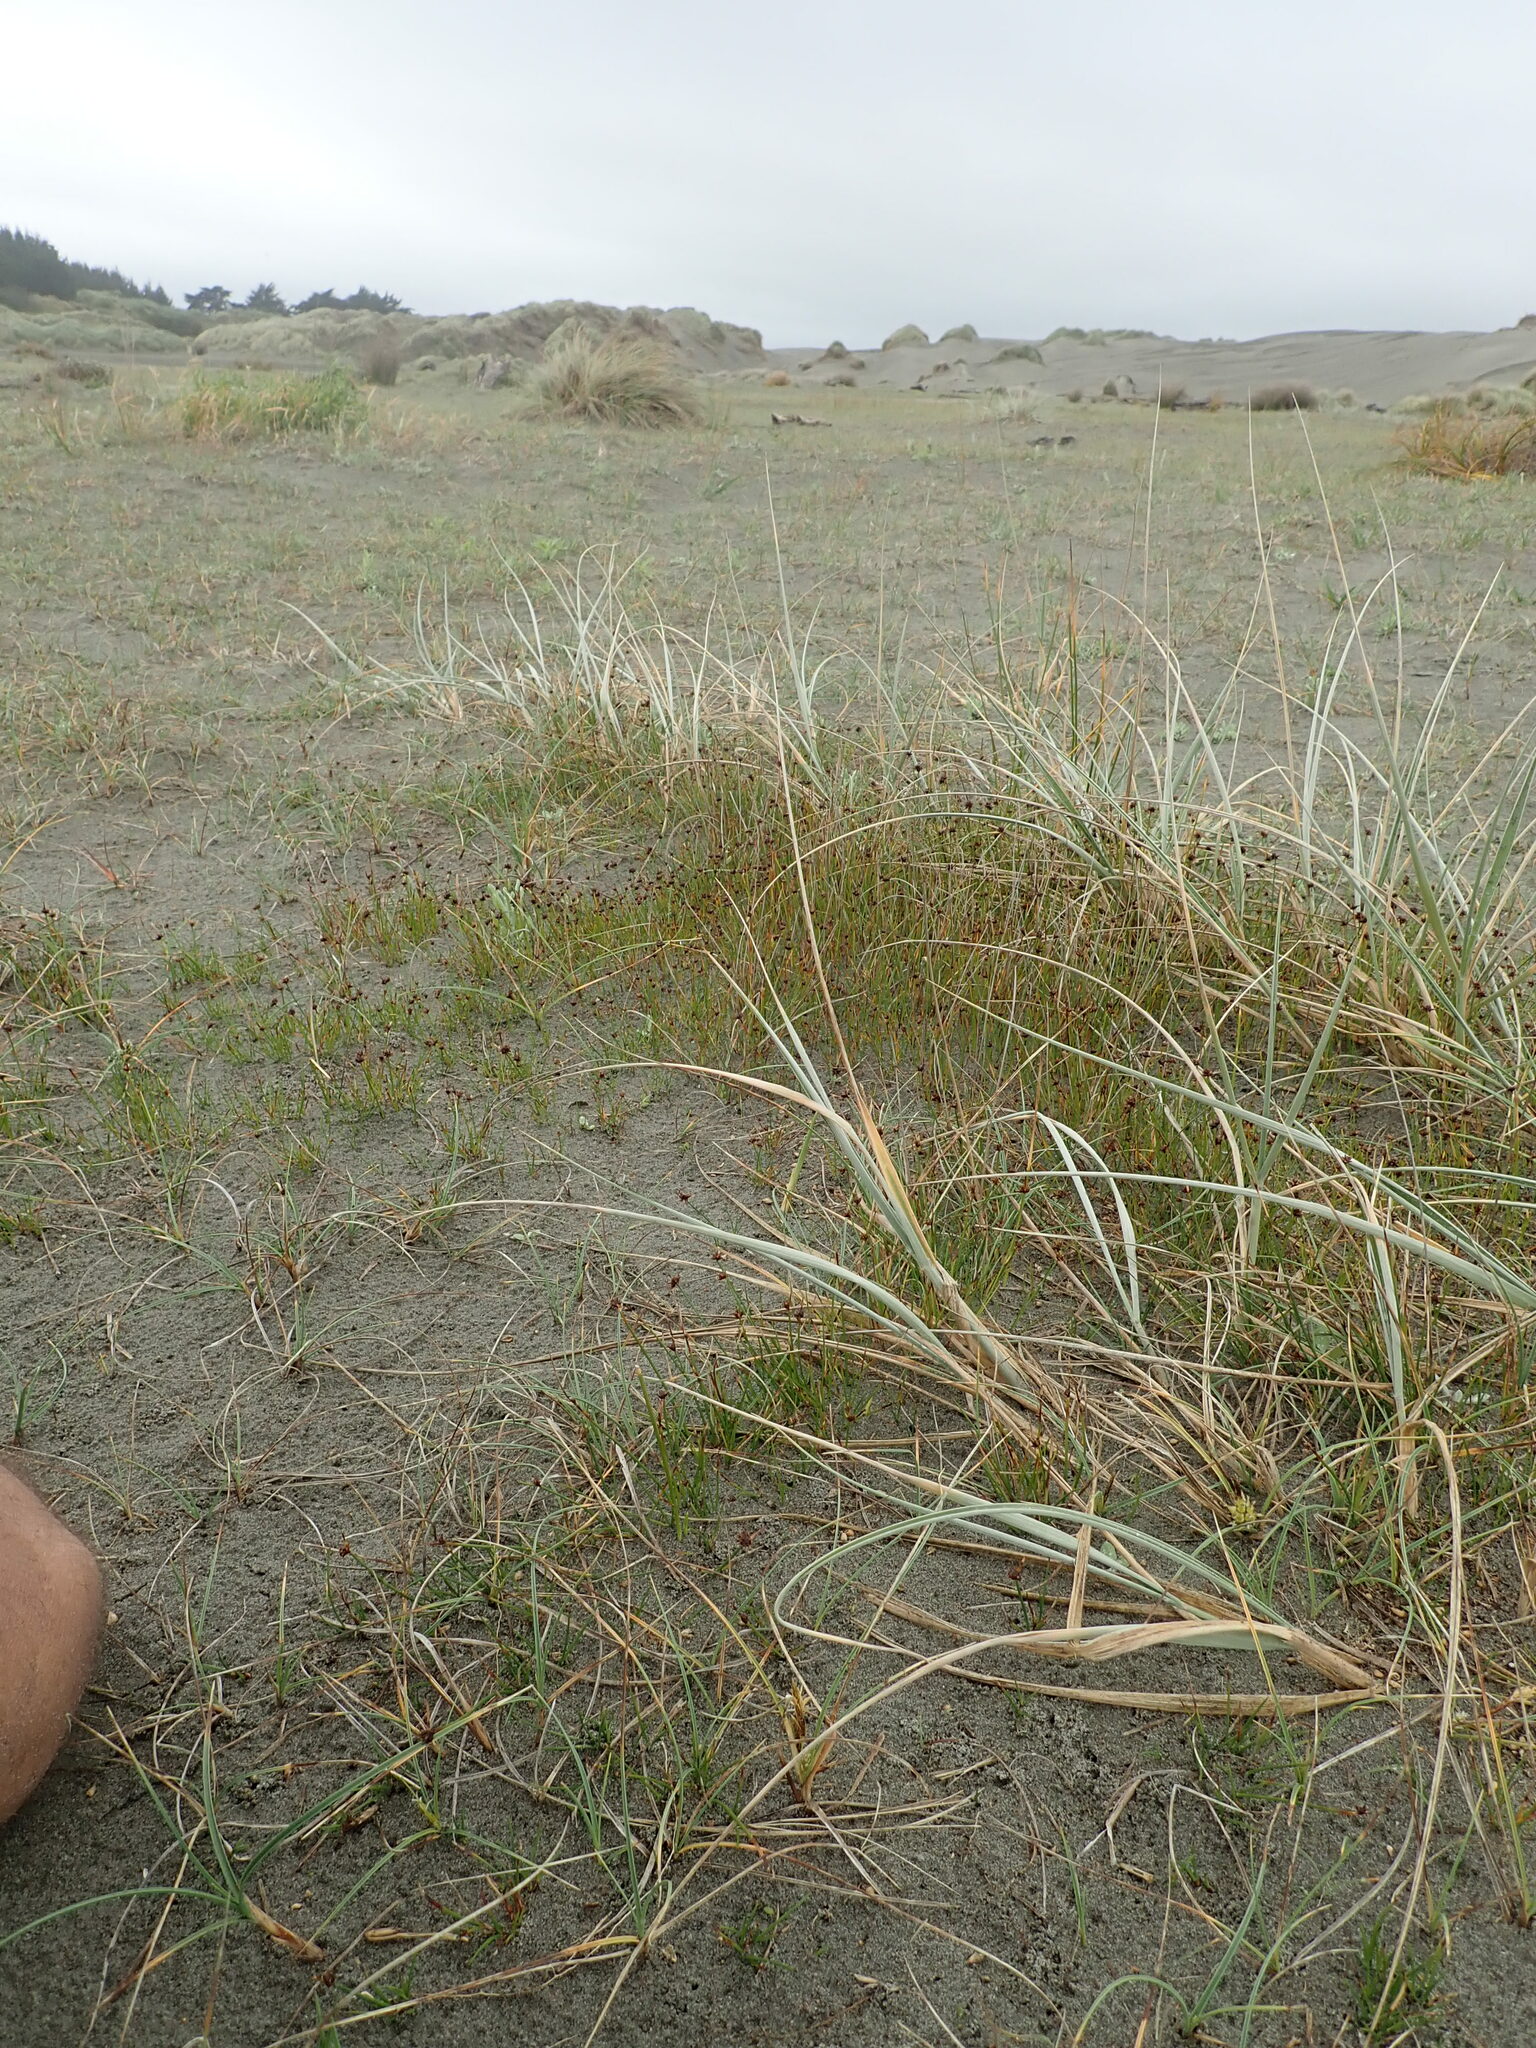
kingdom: Plantae
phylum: Tracheophyta
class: Liliopsida
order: Poales
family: Cyperaceae
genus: Schoenus
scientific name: Schoenus nitens
